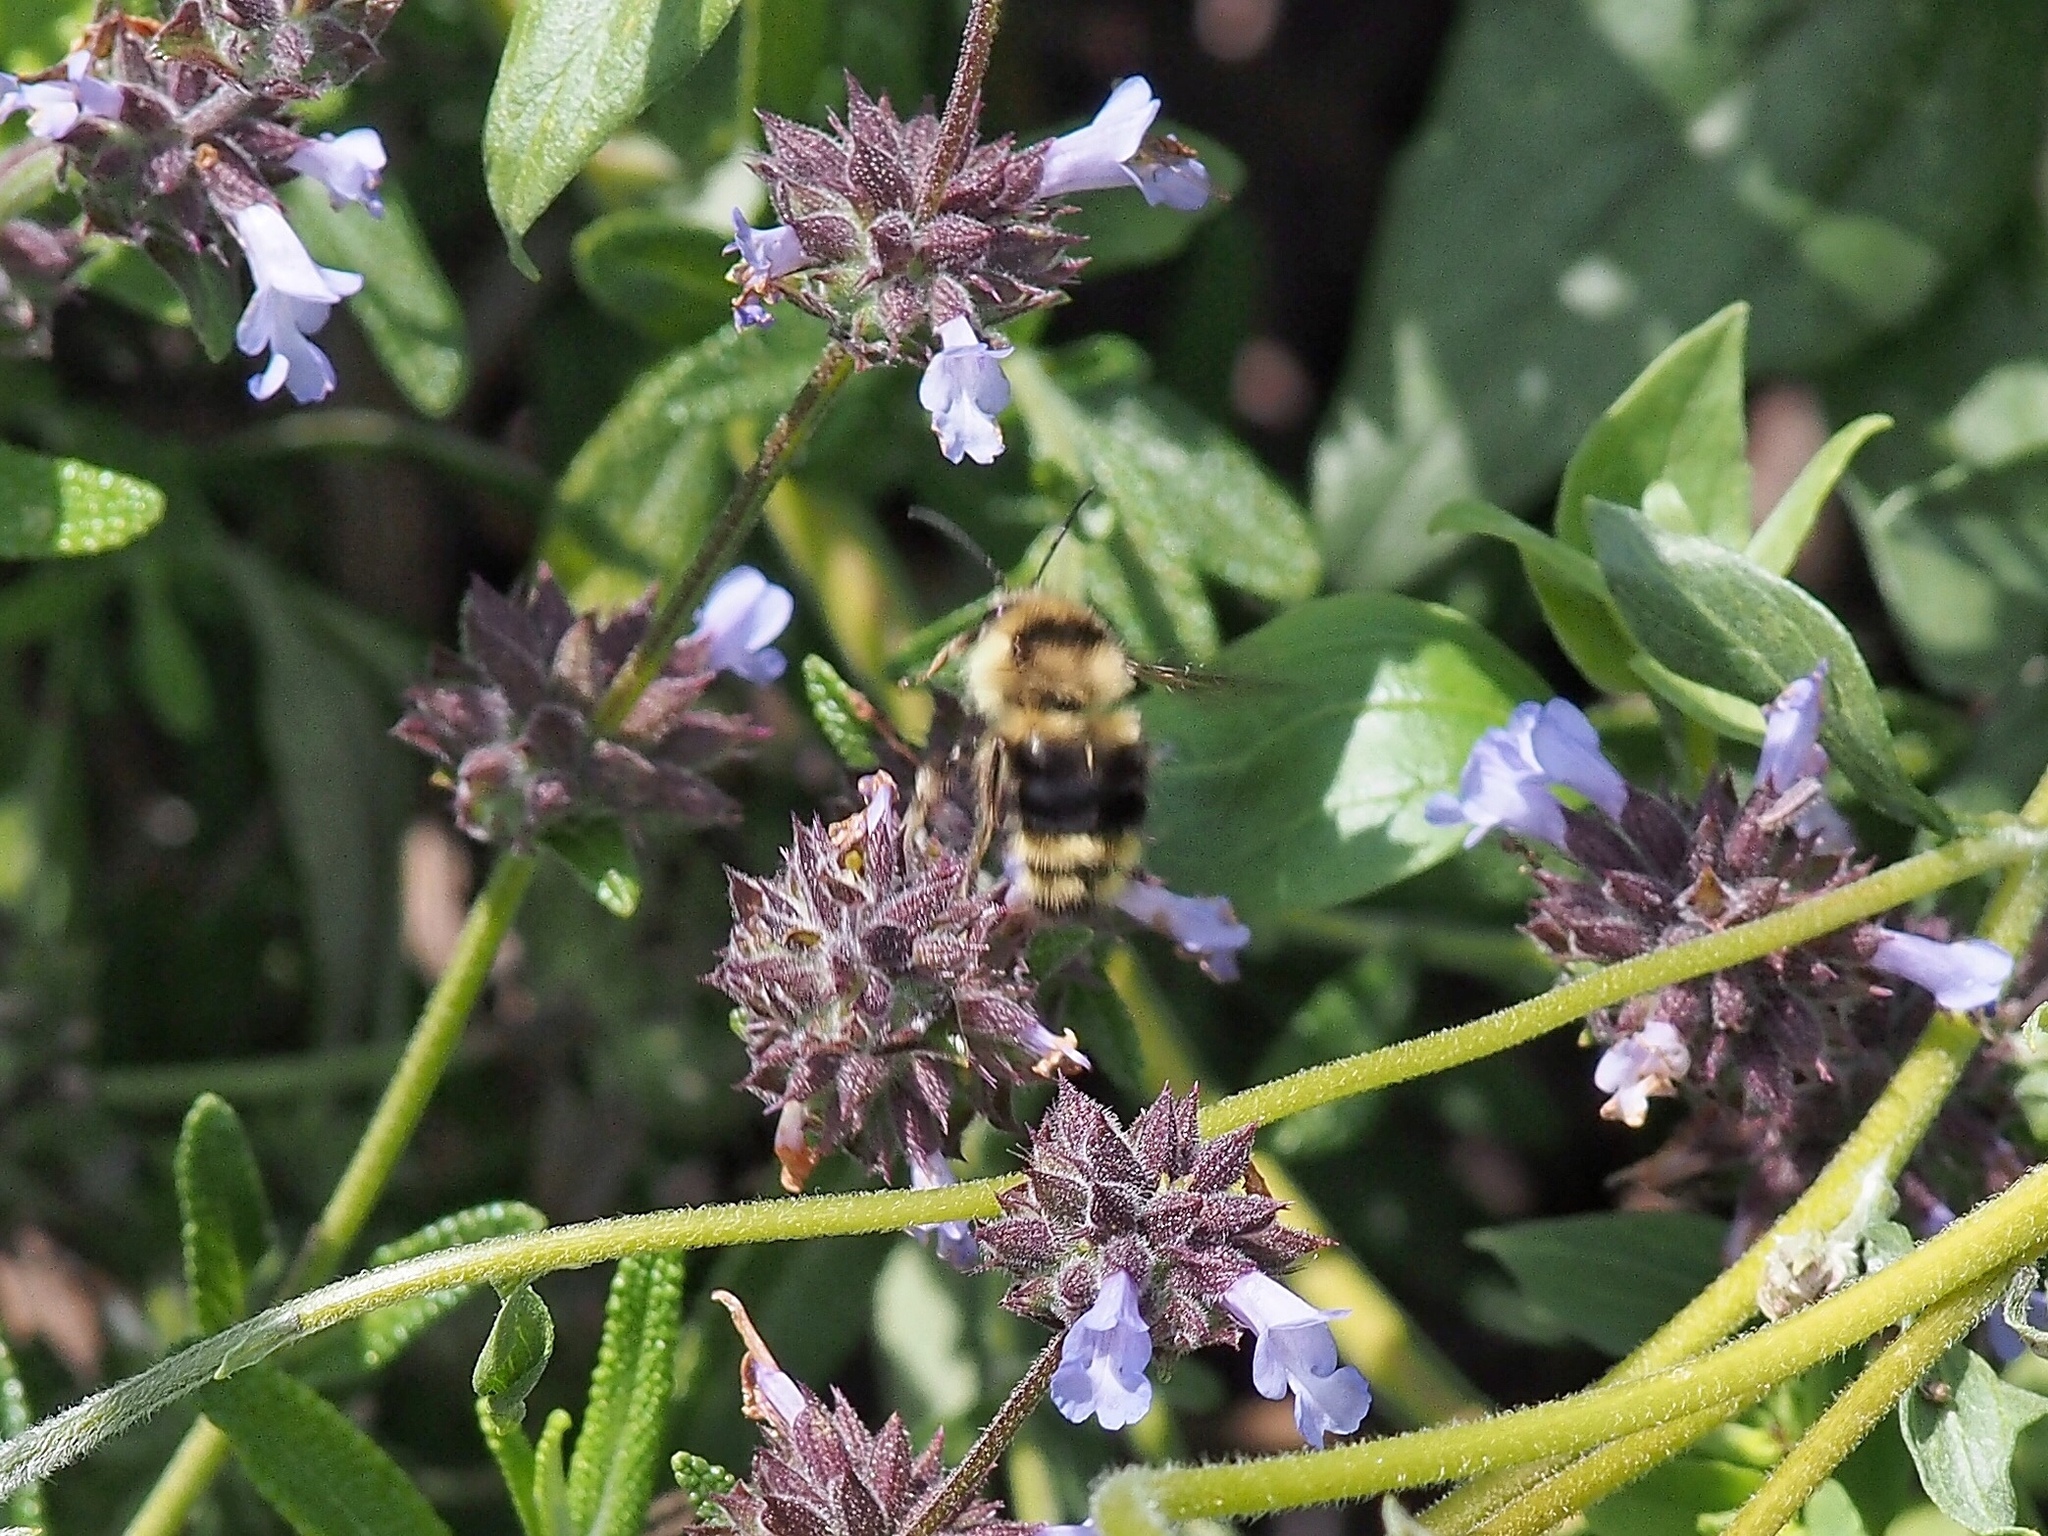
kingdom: Animalia
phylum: Arthropoda
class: Insecta
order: Hymenoptera
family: Apidae
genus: Bombus
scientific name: Bombus melanopygus
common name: Black tail bumble bee
